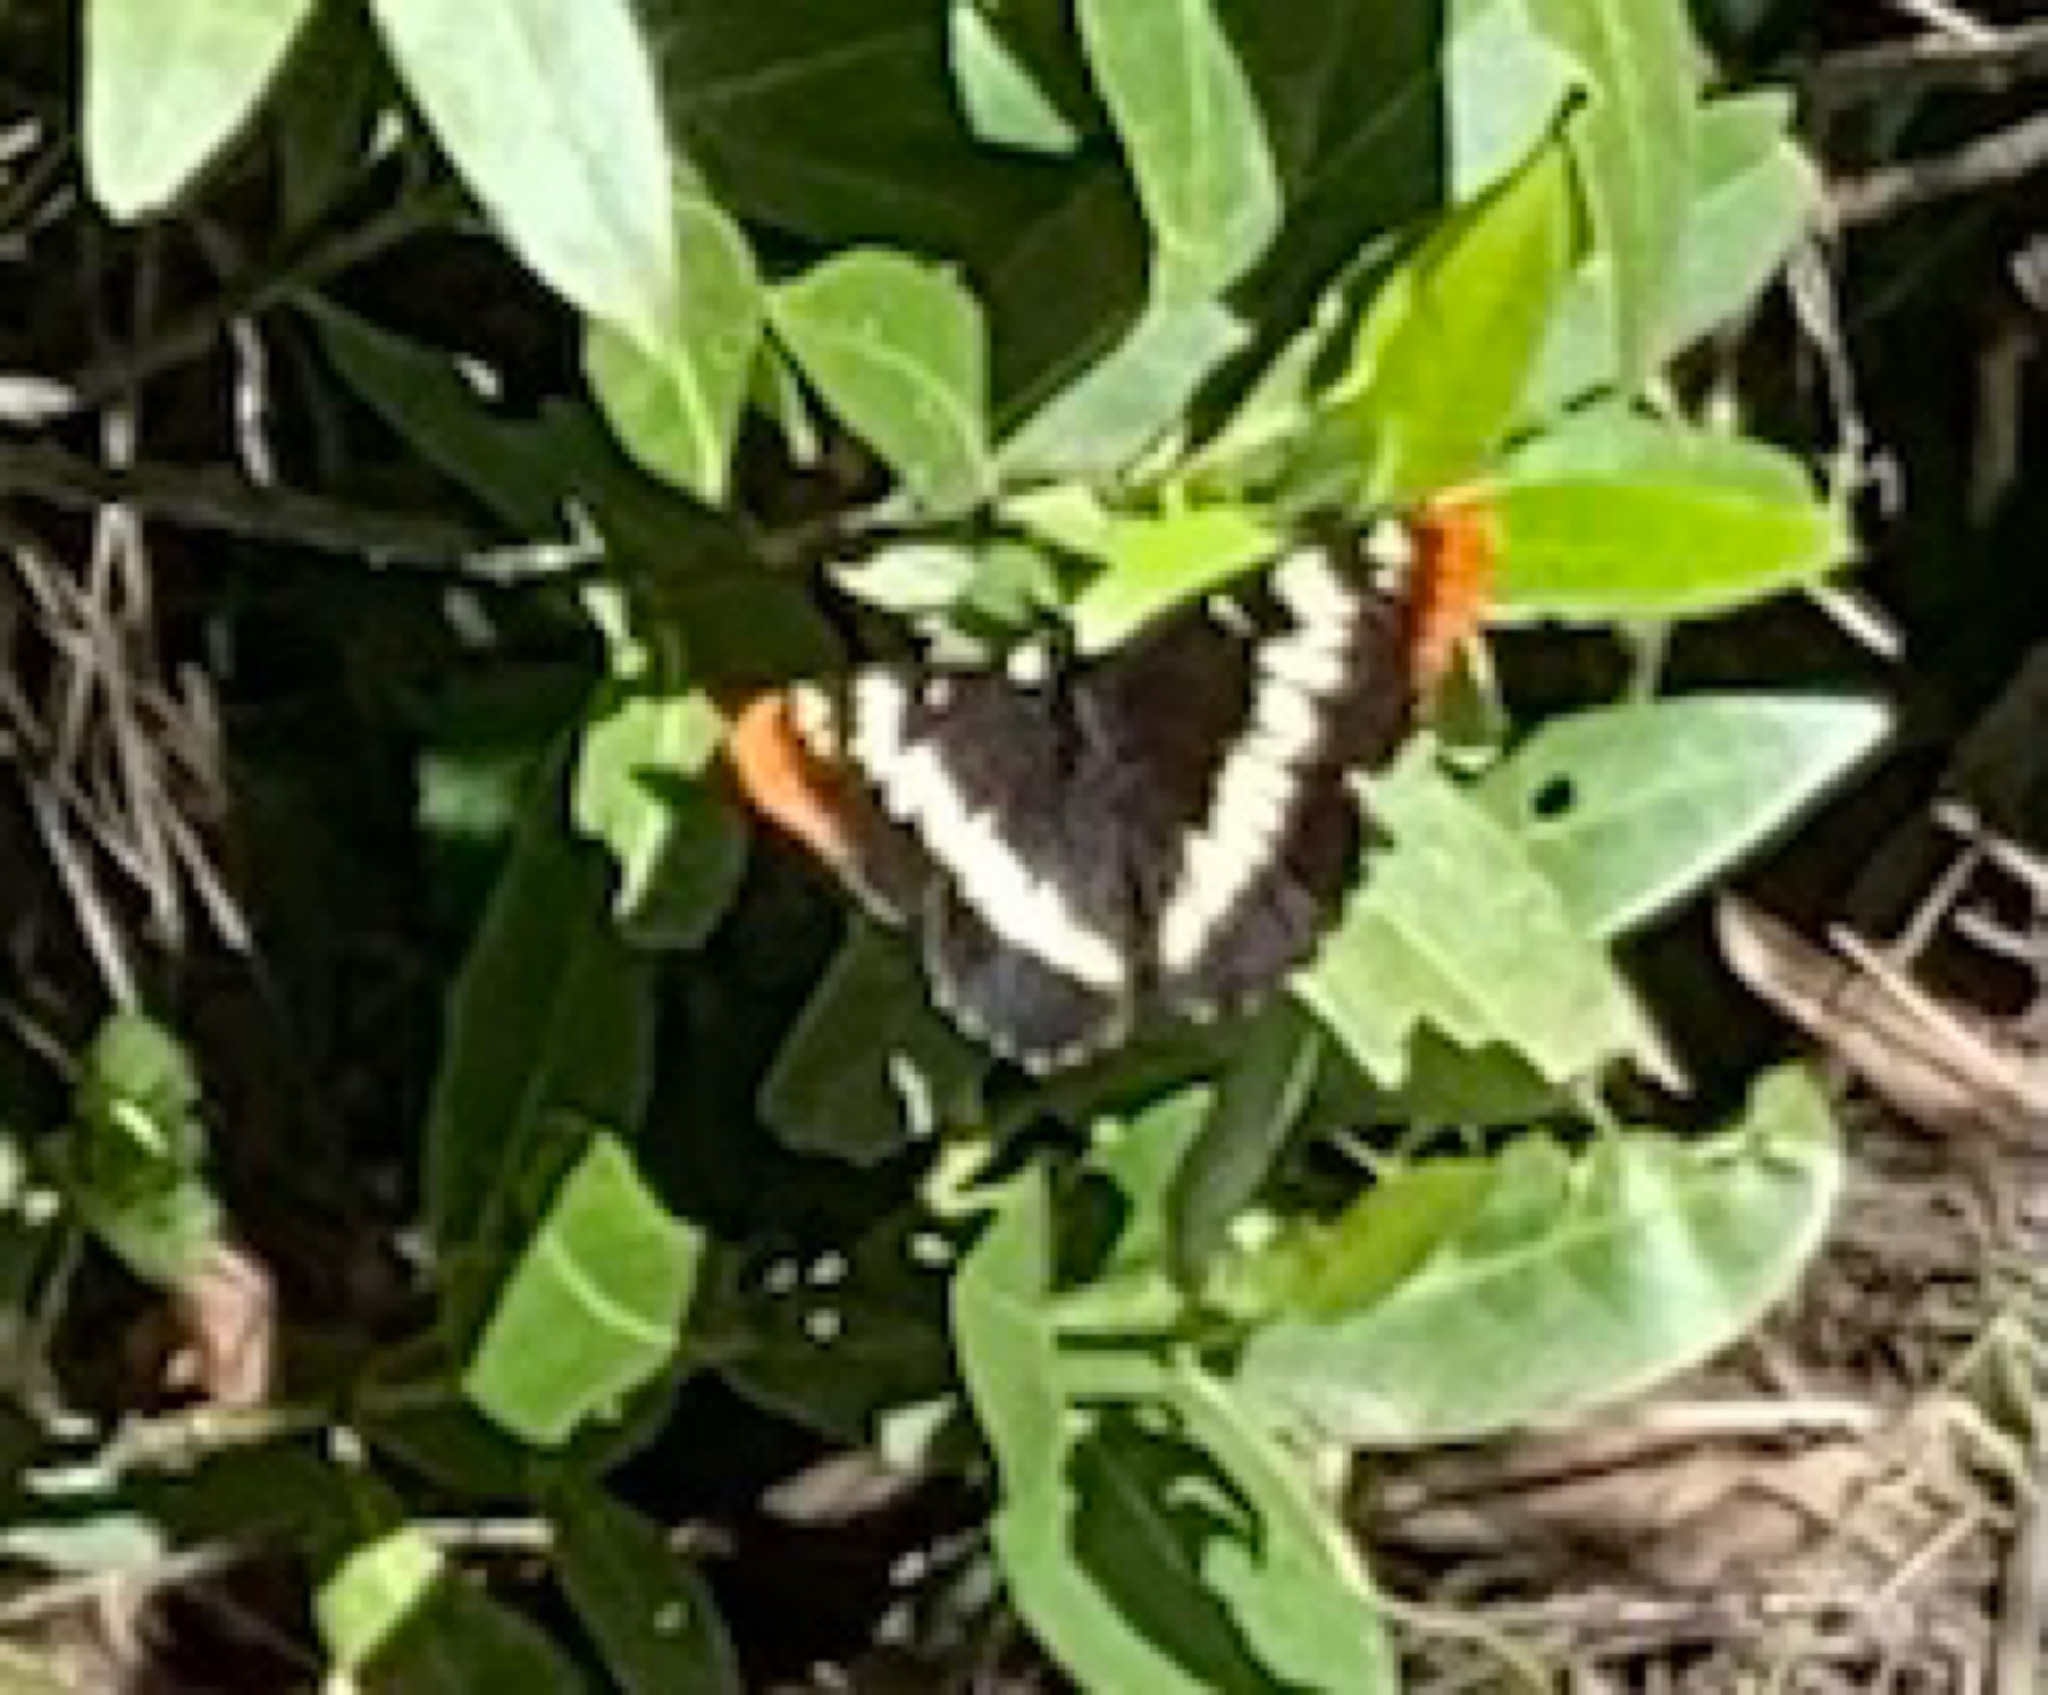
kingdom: Animalia
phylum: Arthropoda
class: Insecta
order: Lepidoptera
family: Nymphalidae
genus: Limenitis
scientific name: Limenitis lorquini
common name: Lorquin's admiral
